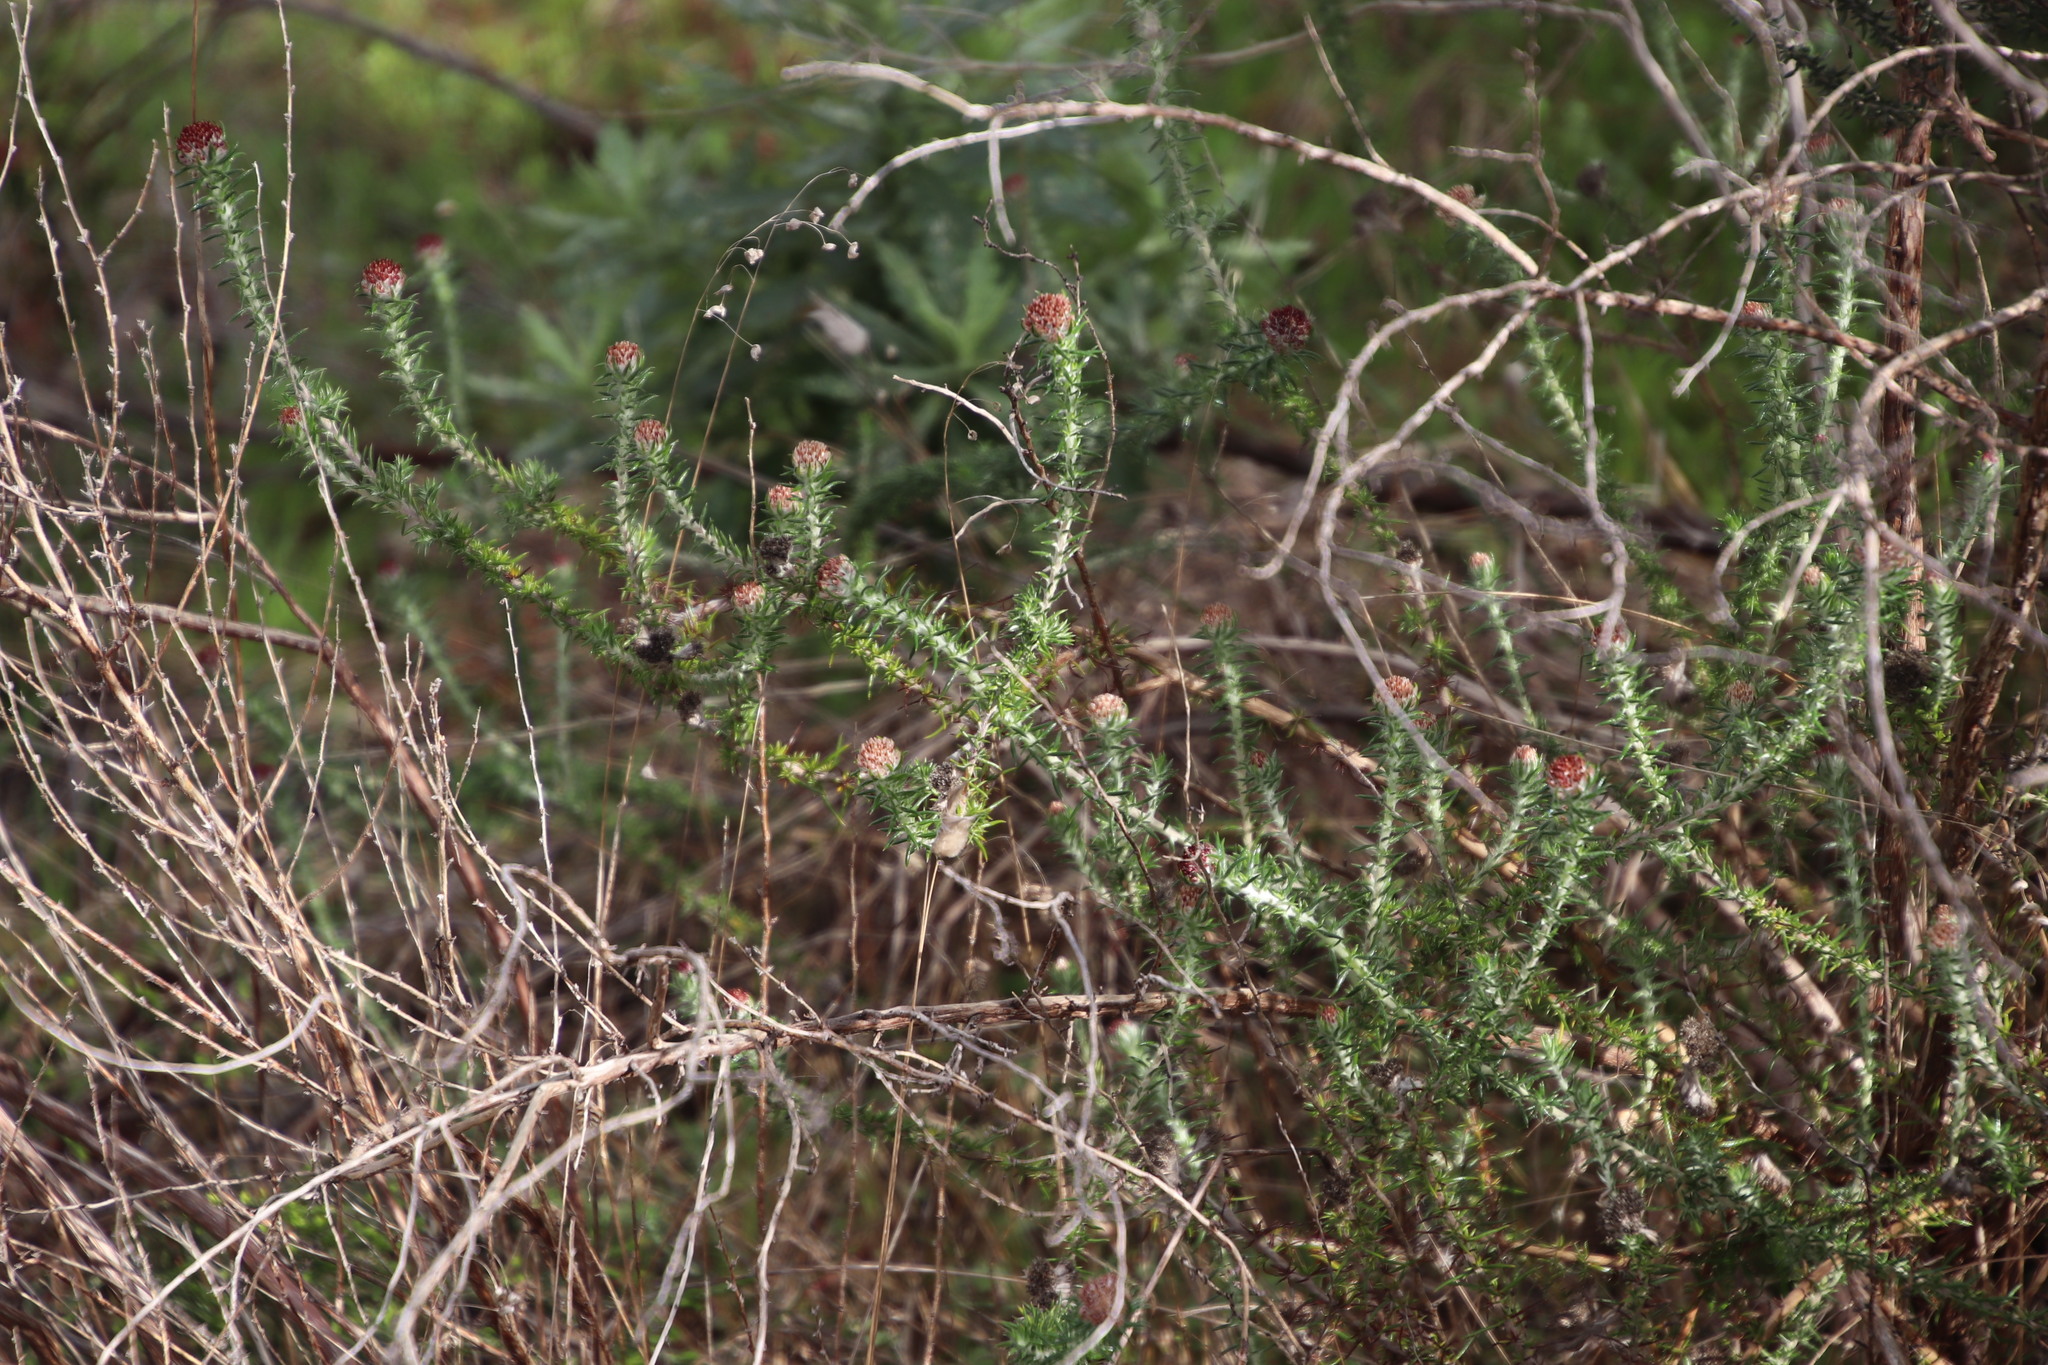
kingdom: Plantae
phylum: Tracheophyta
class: Magnoliopsida
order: Asterales
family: Asteraceae
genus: Metalasia
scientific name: Metalasia pulchella
